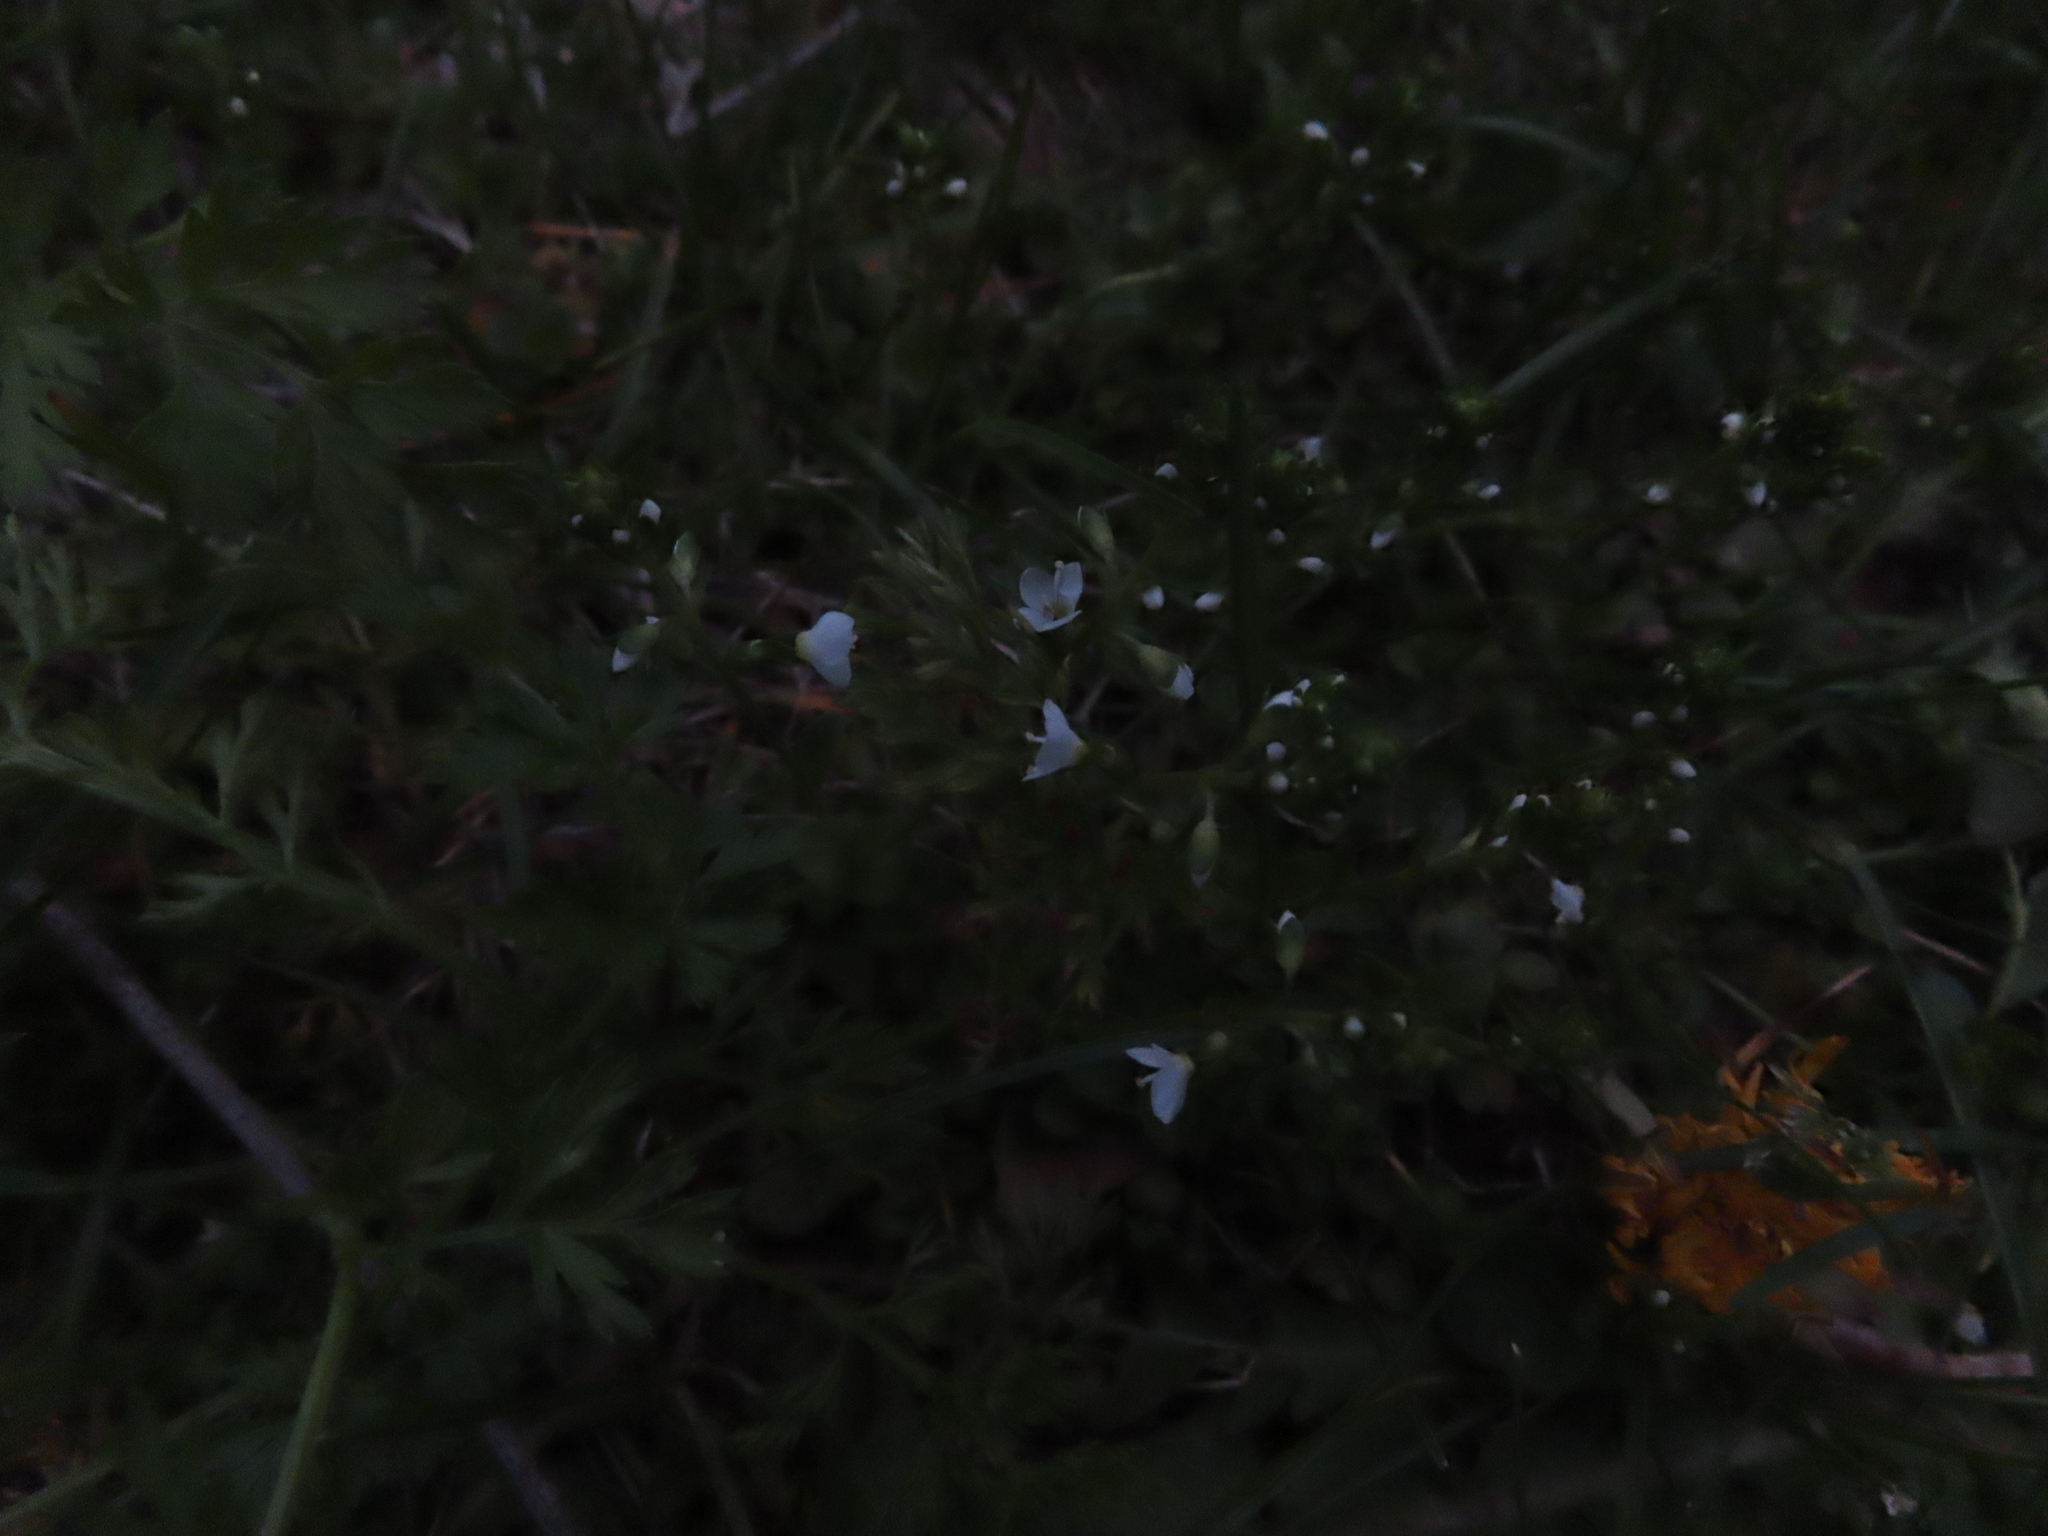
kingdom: Plantae
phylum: Tracheophyta
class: Magnoliopsida
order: Lamiales
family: Plantaginaceae
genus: Veronica
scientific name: Veronica serpyllifolia
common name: Thyme-leaved speedwell
